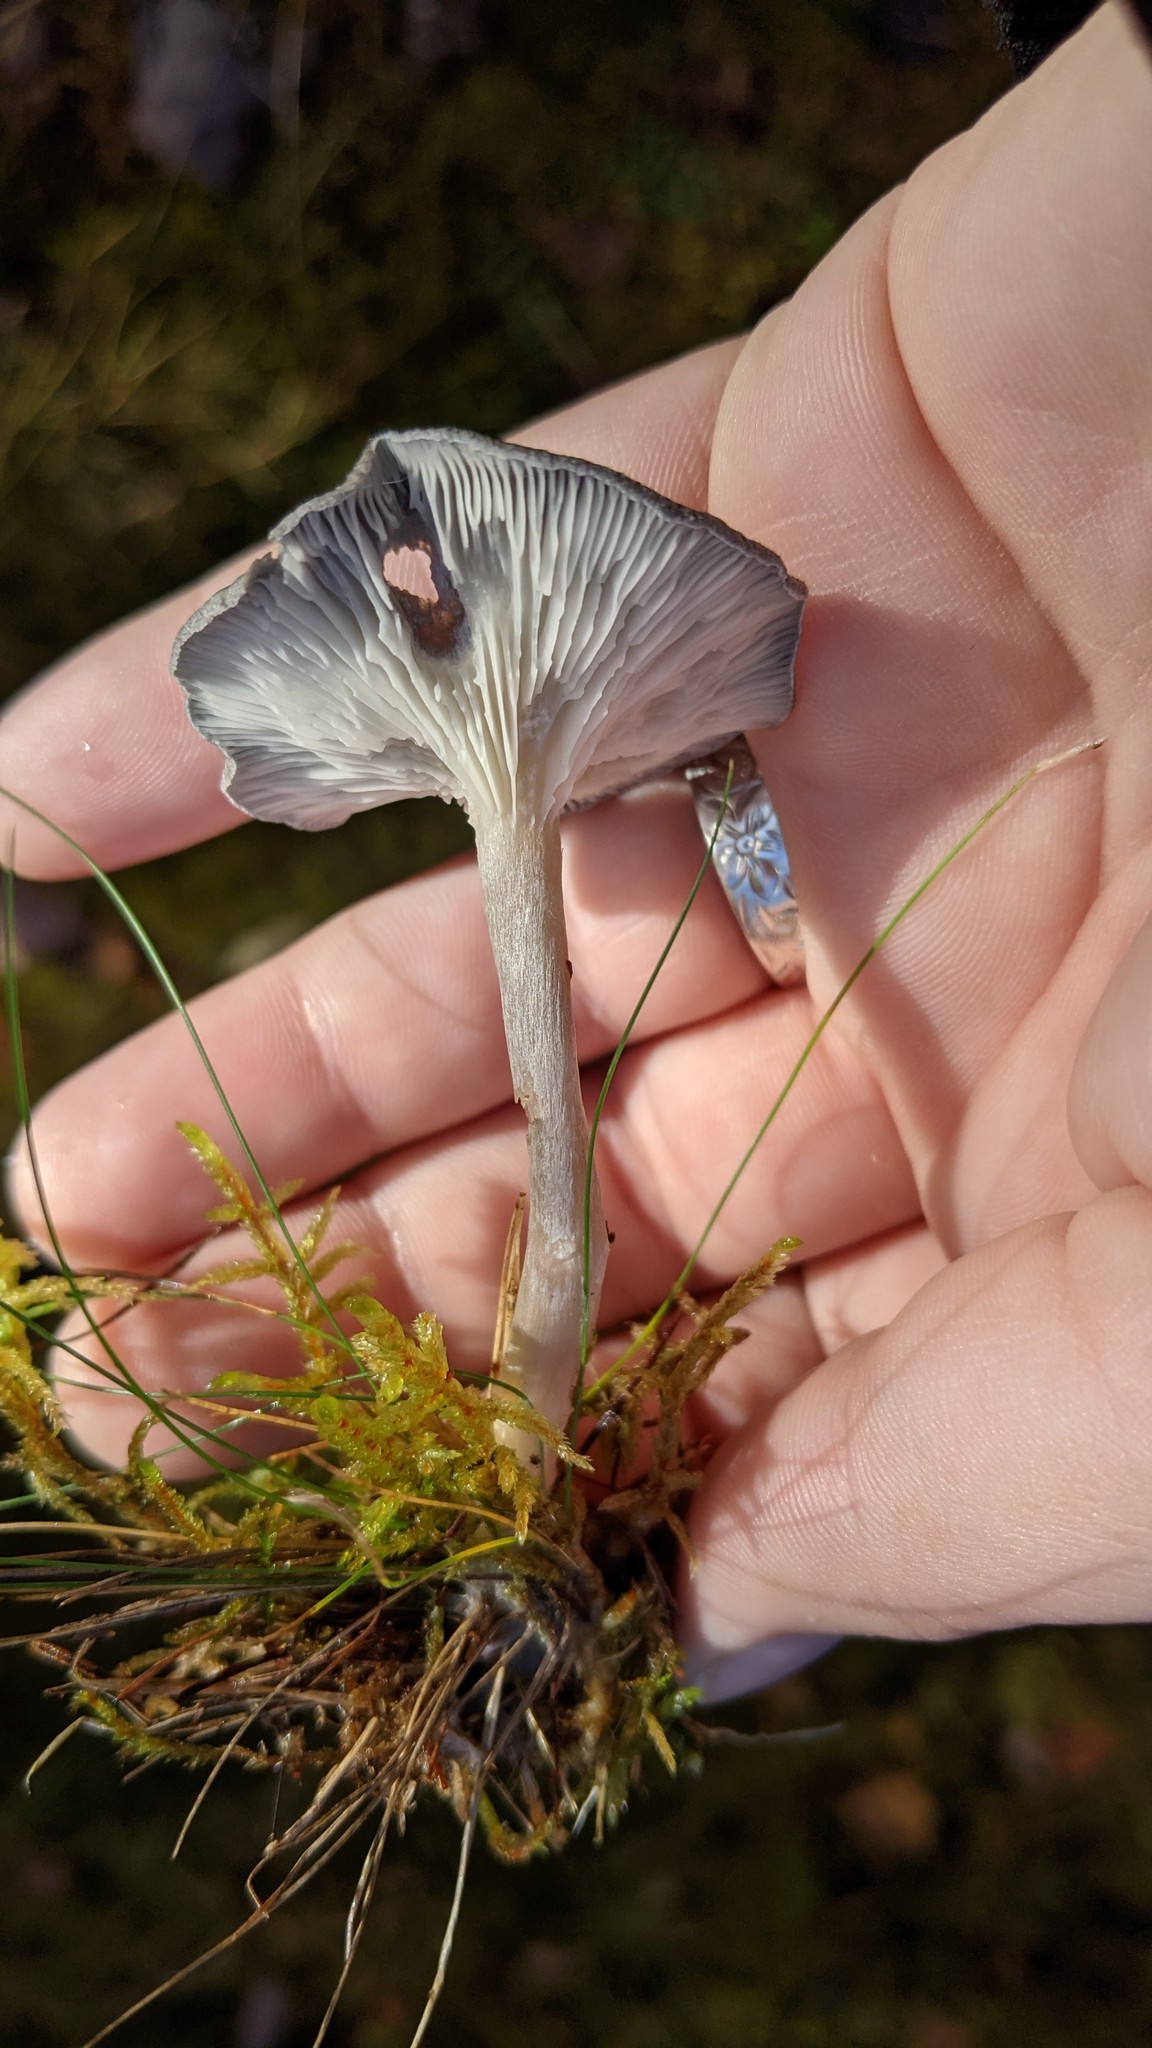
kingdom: Fungi
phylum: Basidiomycota
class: Agaricomycetes
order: Agaricales
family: Hygrophoraceae
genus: Cantharellula
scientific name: Cantharellula umbonata
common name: The humpback
